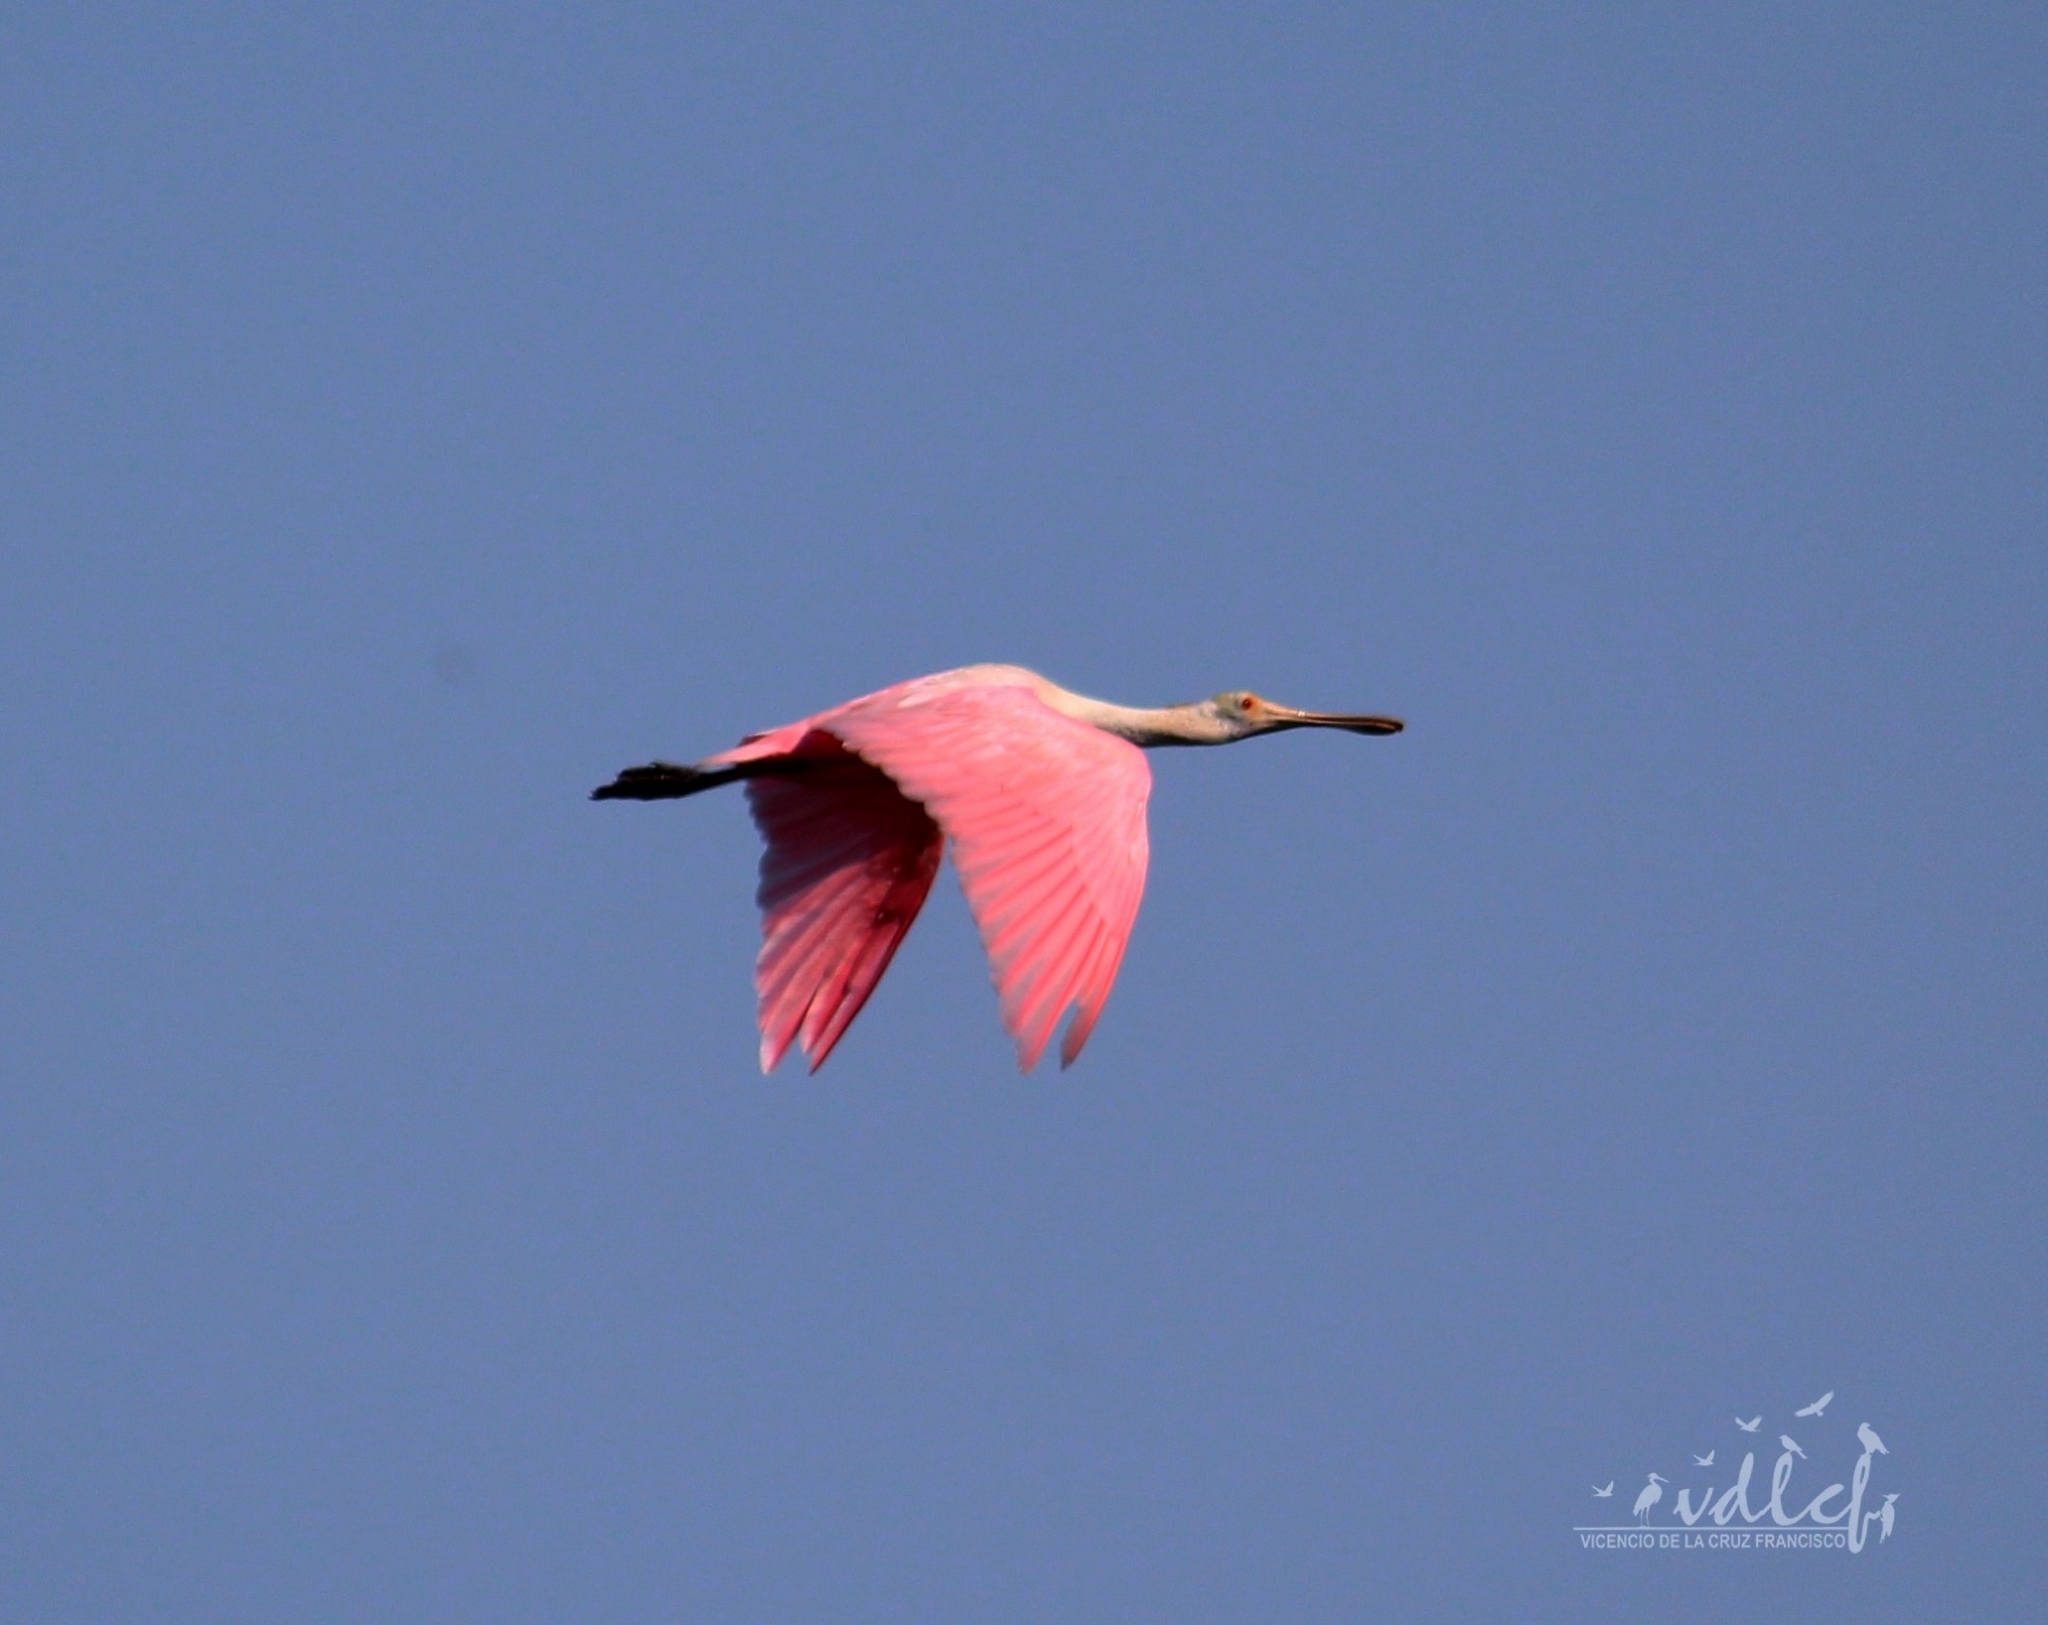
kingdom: Animalia
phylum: Chordata
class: Aves
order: Pelecaniformes
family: Threskiornithidae
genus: Platalea
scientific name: Platalea ajaja
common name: Roseate spoonbill
